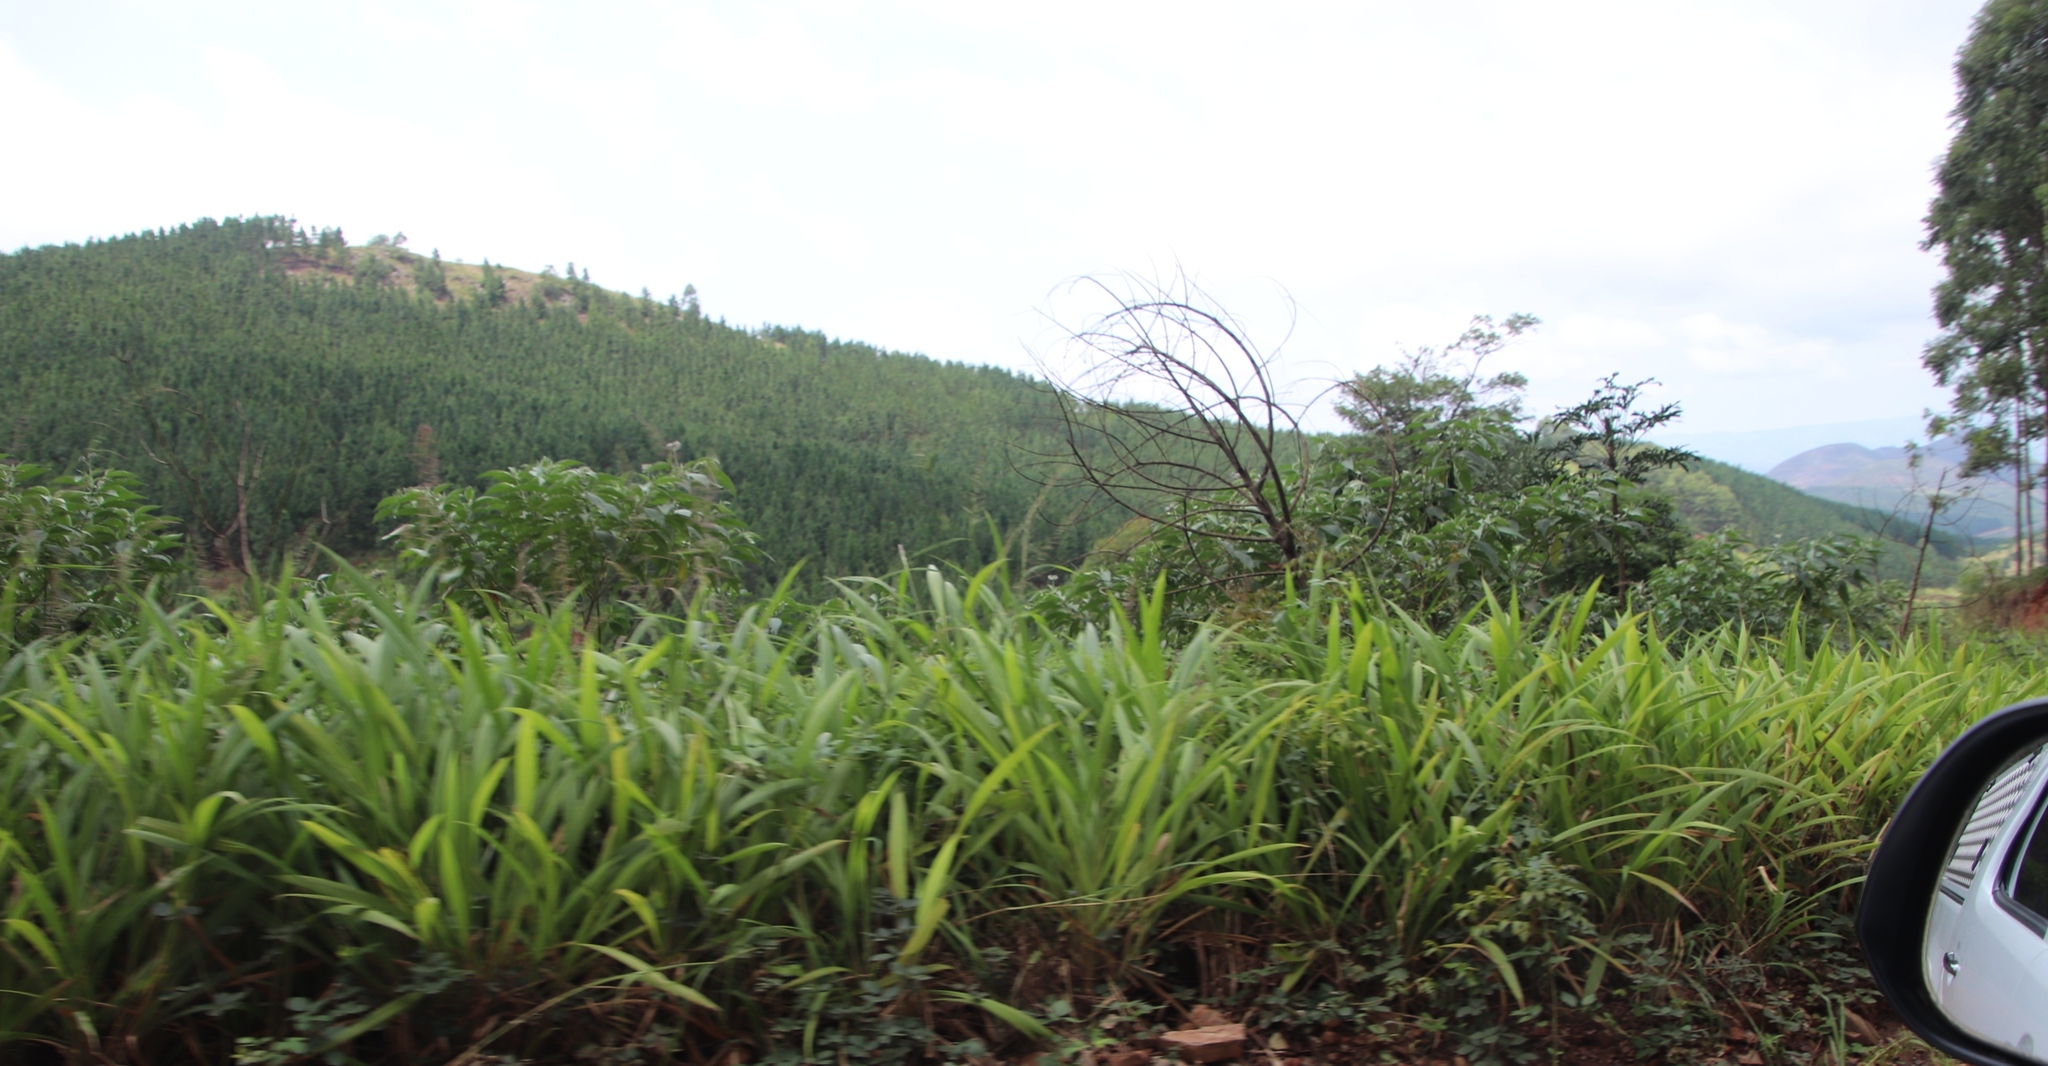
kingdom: Plantae
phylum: Tracheophyta
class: Magnoliopsida
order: Solanales
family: Solanaceae
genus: Solanum
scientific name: Solanum mauritianum
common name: Earleaf nightshade
